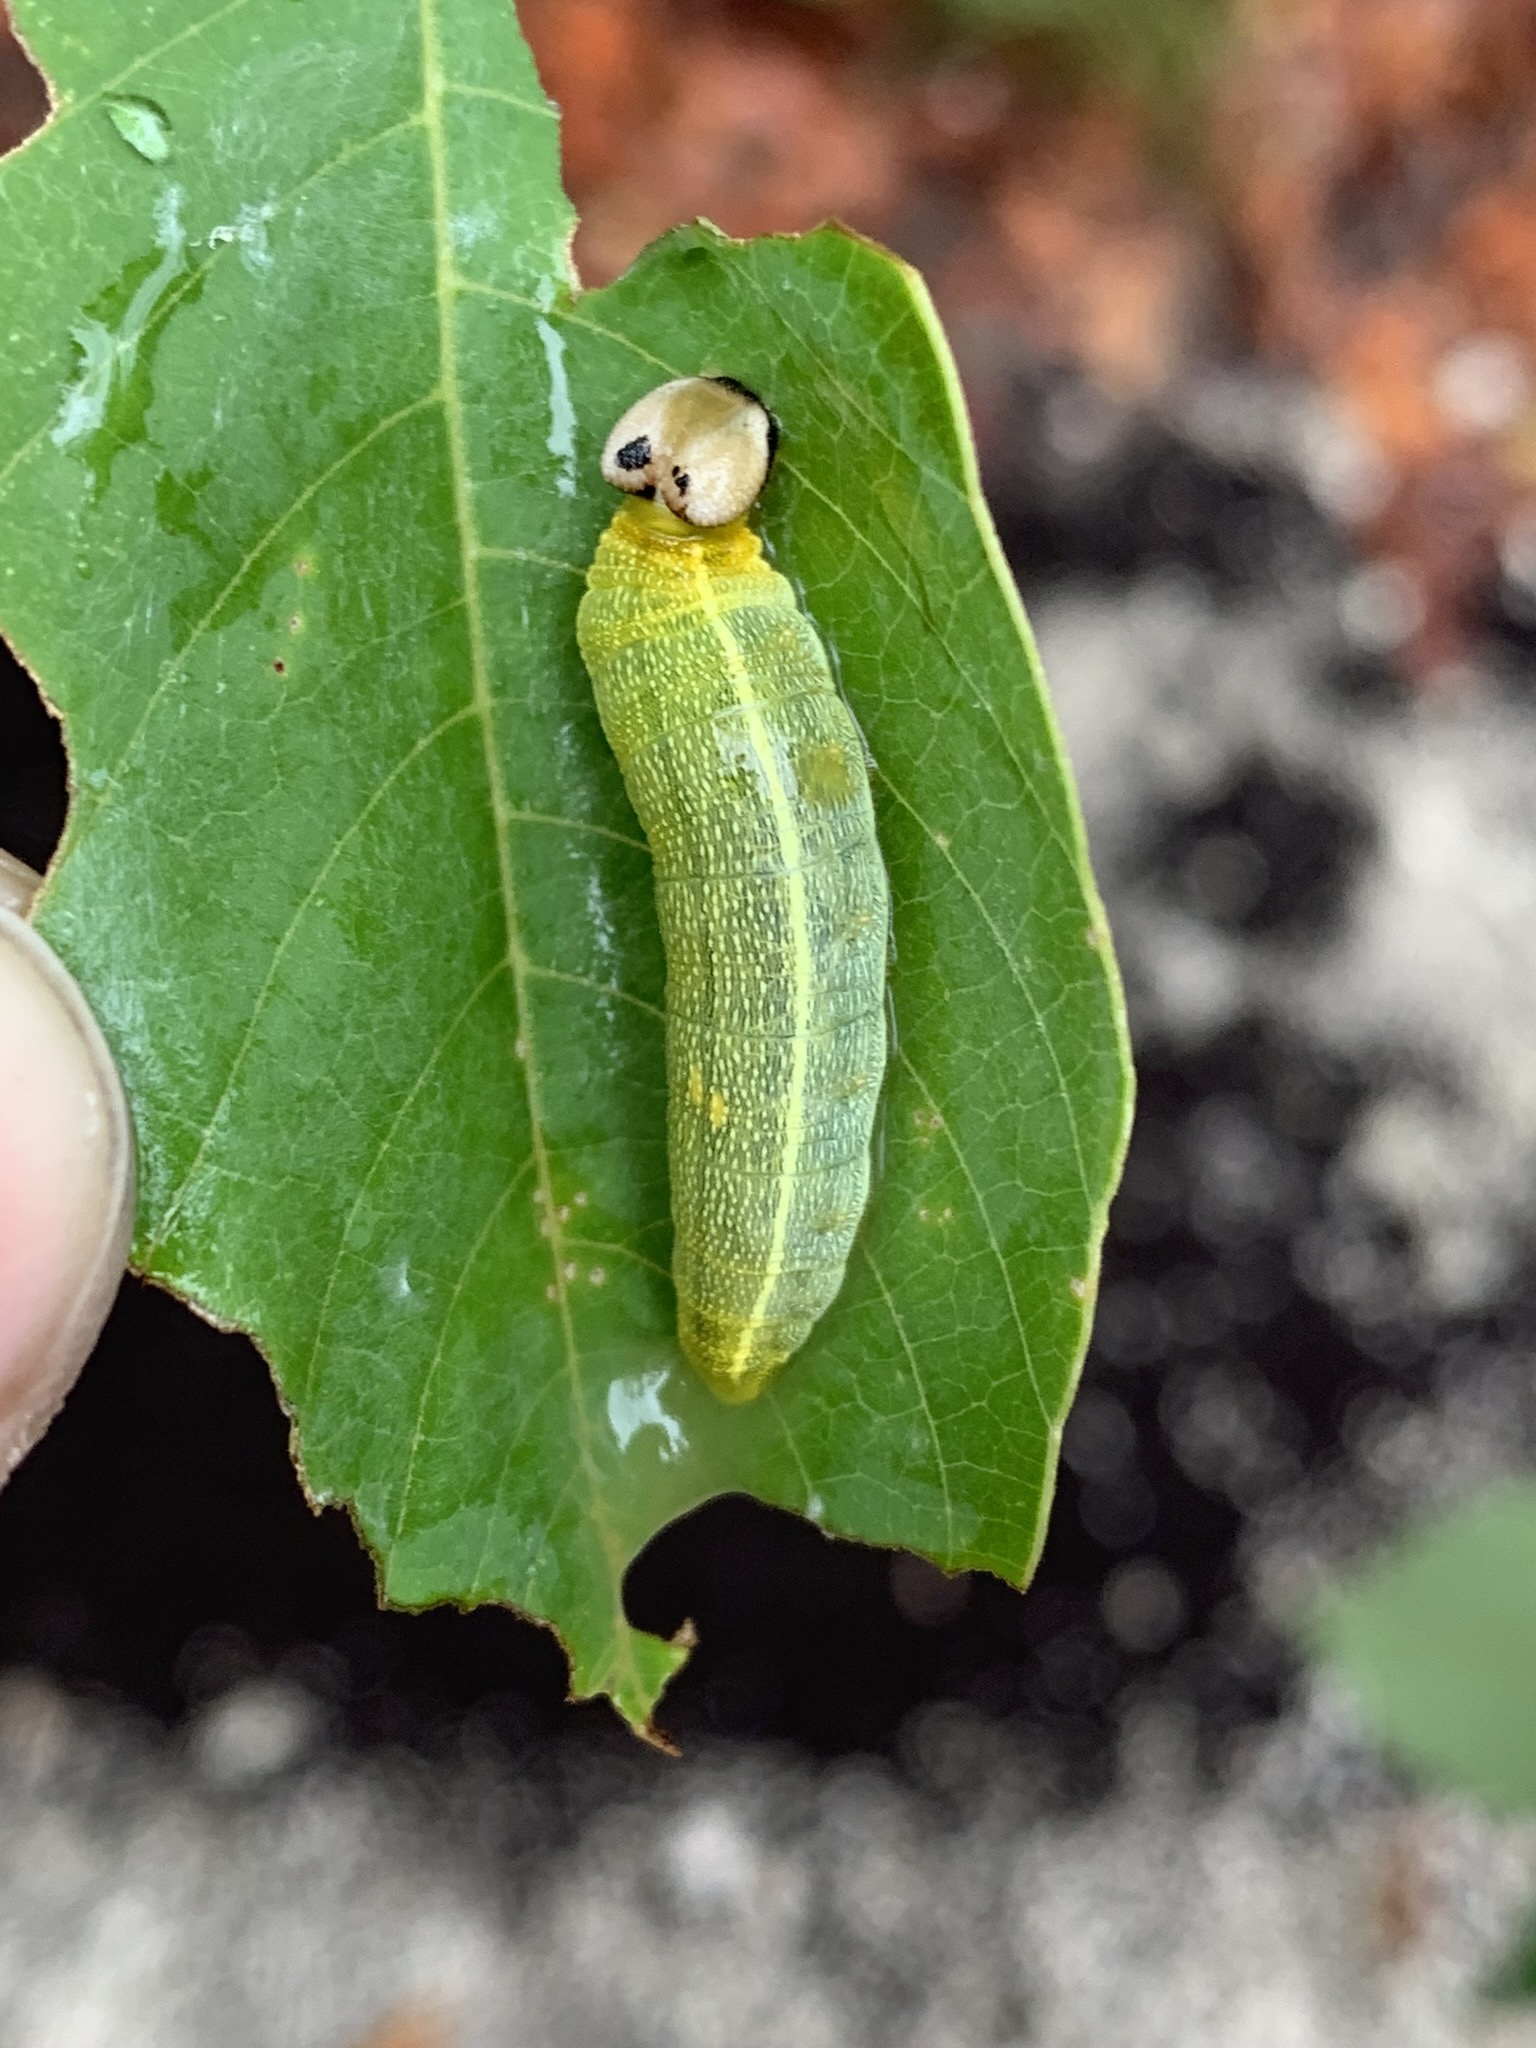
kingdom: Animalia
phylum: Arthropoda
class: Insecta
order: Lepidoptera
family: Hesperiidae
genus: Polygonus
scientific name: Polygonus leo
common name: Hammoch skipper
